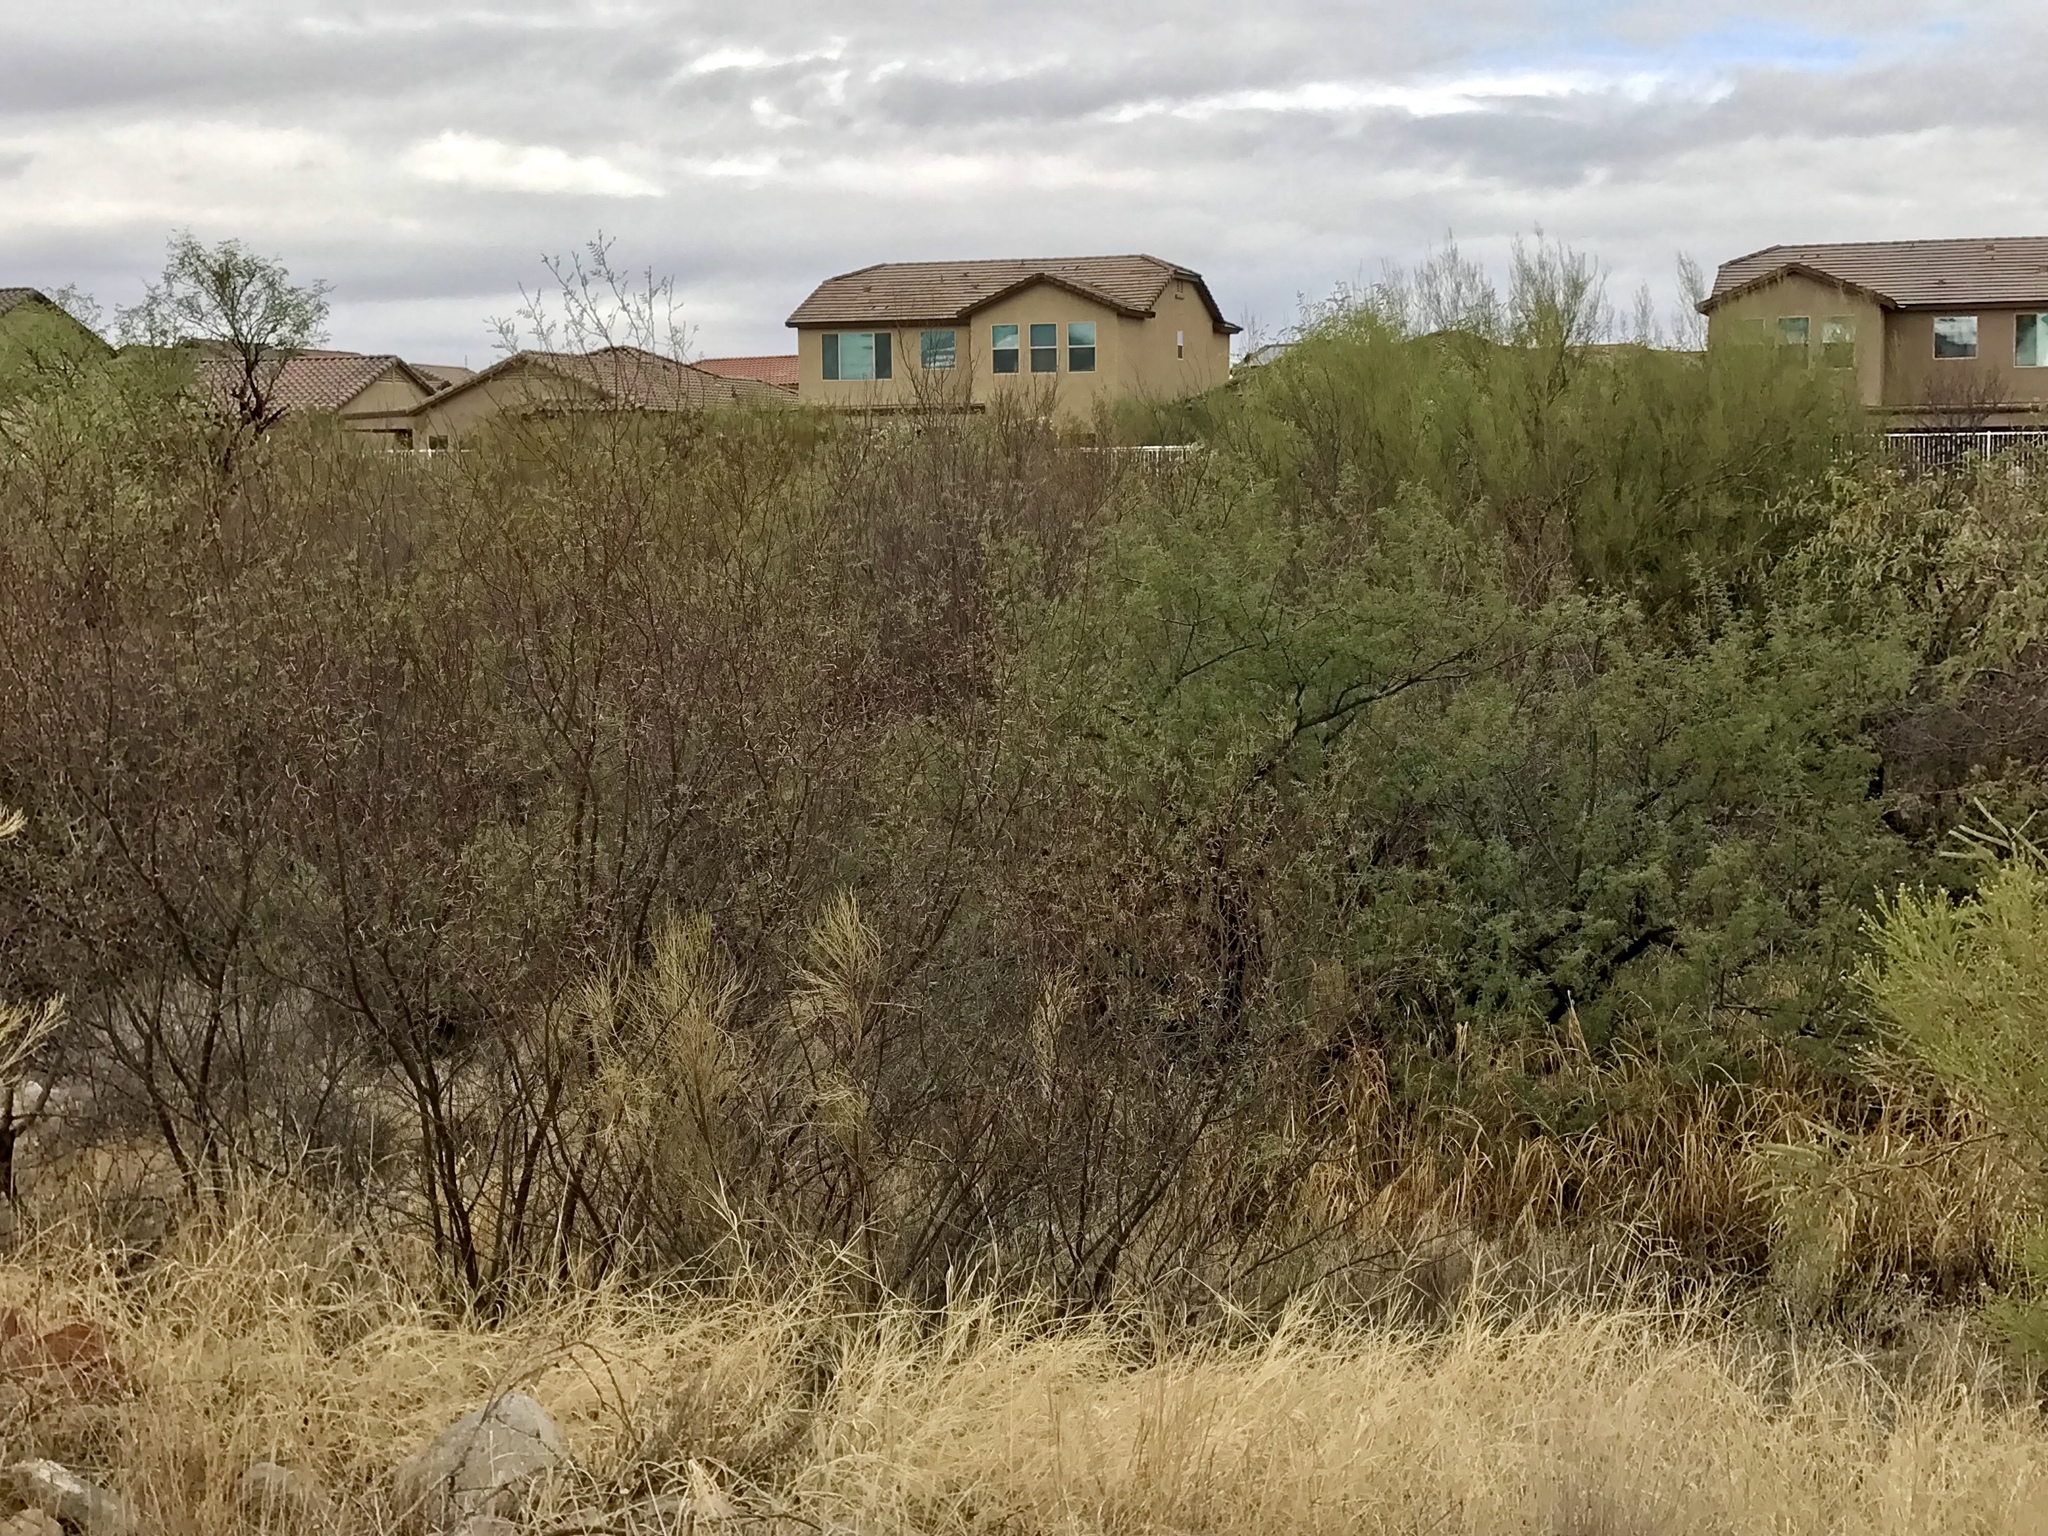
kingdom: Plantae
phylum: Tracheophyta
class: Magnoliopsida
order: Fabales
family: Fabaceae
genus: Vachellia
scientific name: Vachellia constricta
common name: Mescat acacia
